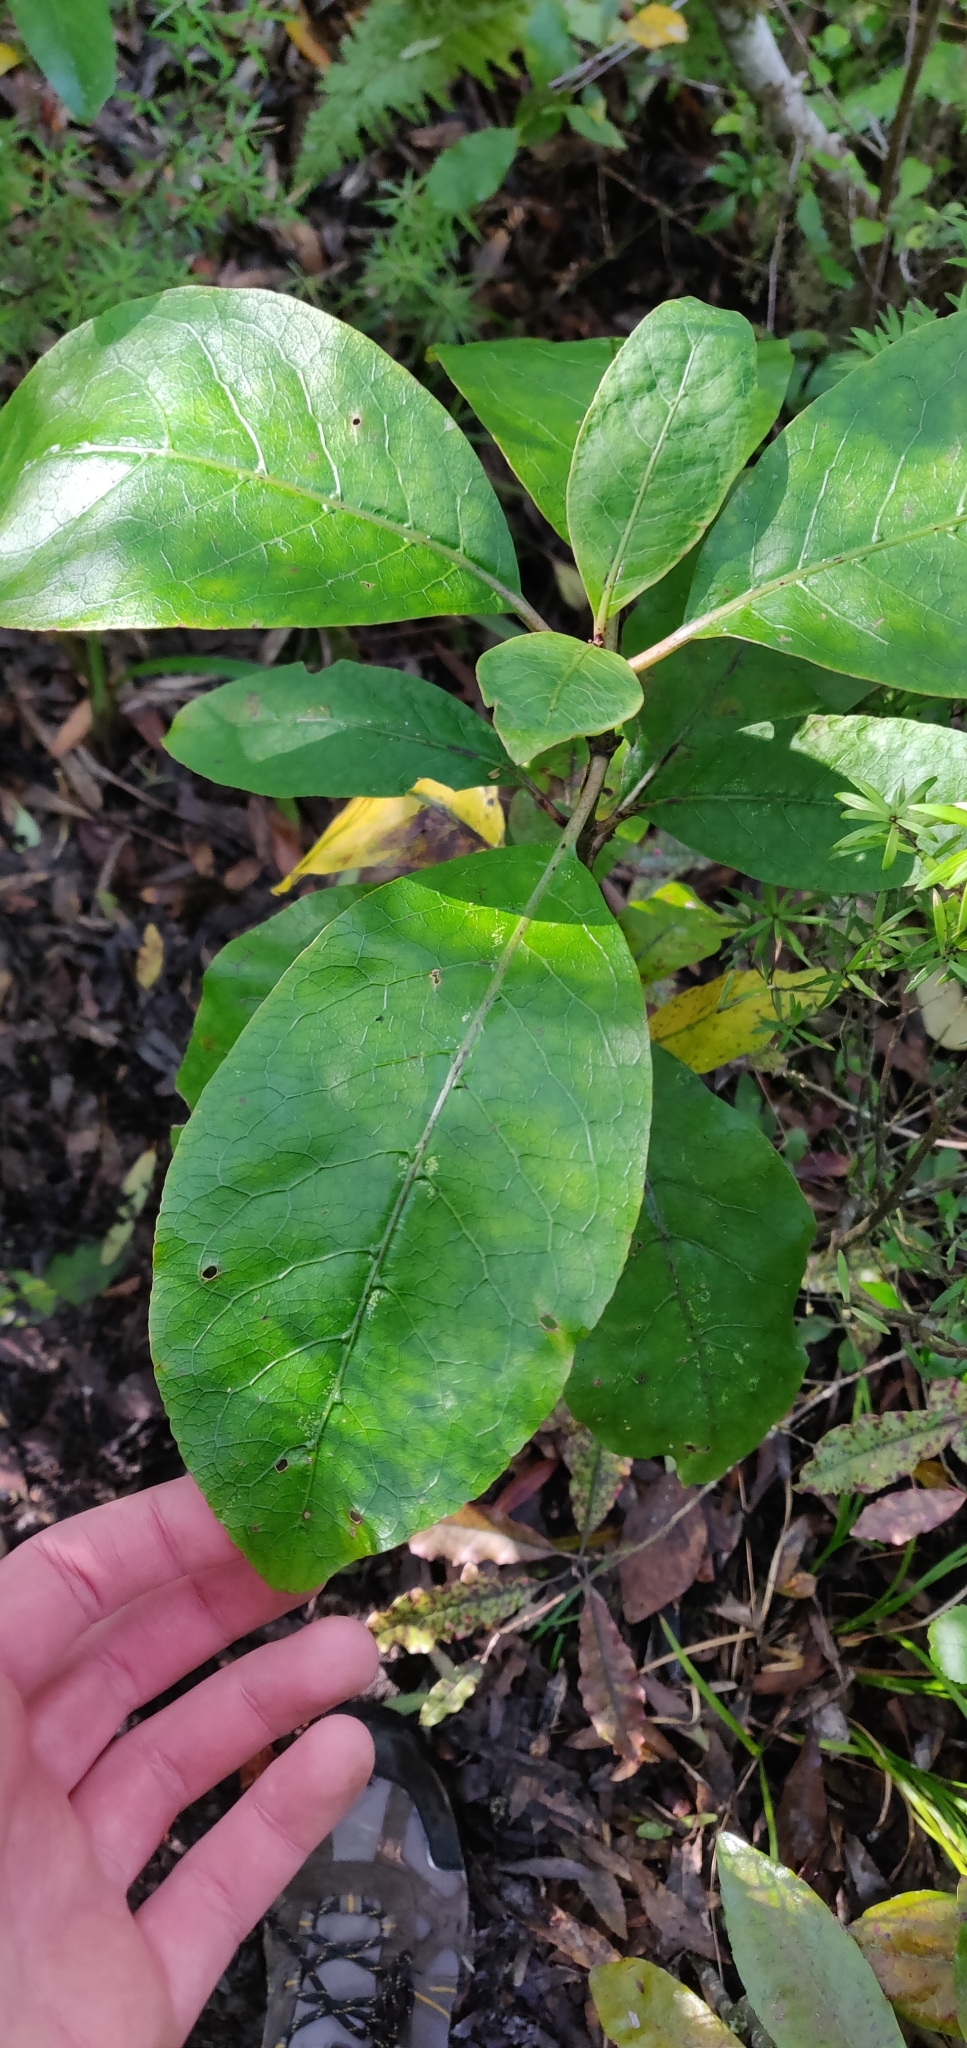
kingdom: Plantae
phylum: Tracheophyta
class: Magnoliopsida
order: Gentianales
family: Rubiaceae
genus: Coprosma
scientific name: Coprosma autumnalis
